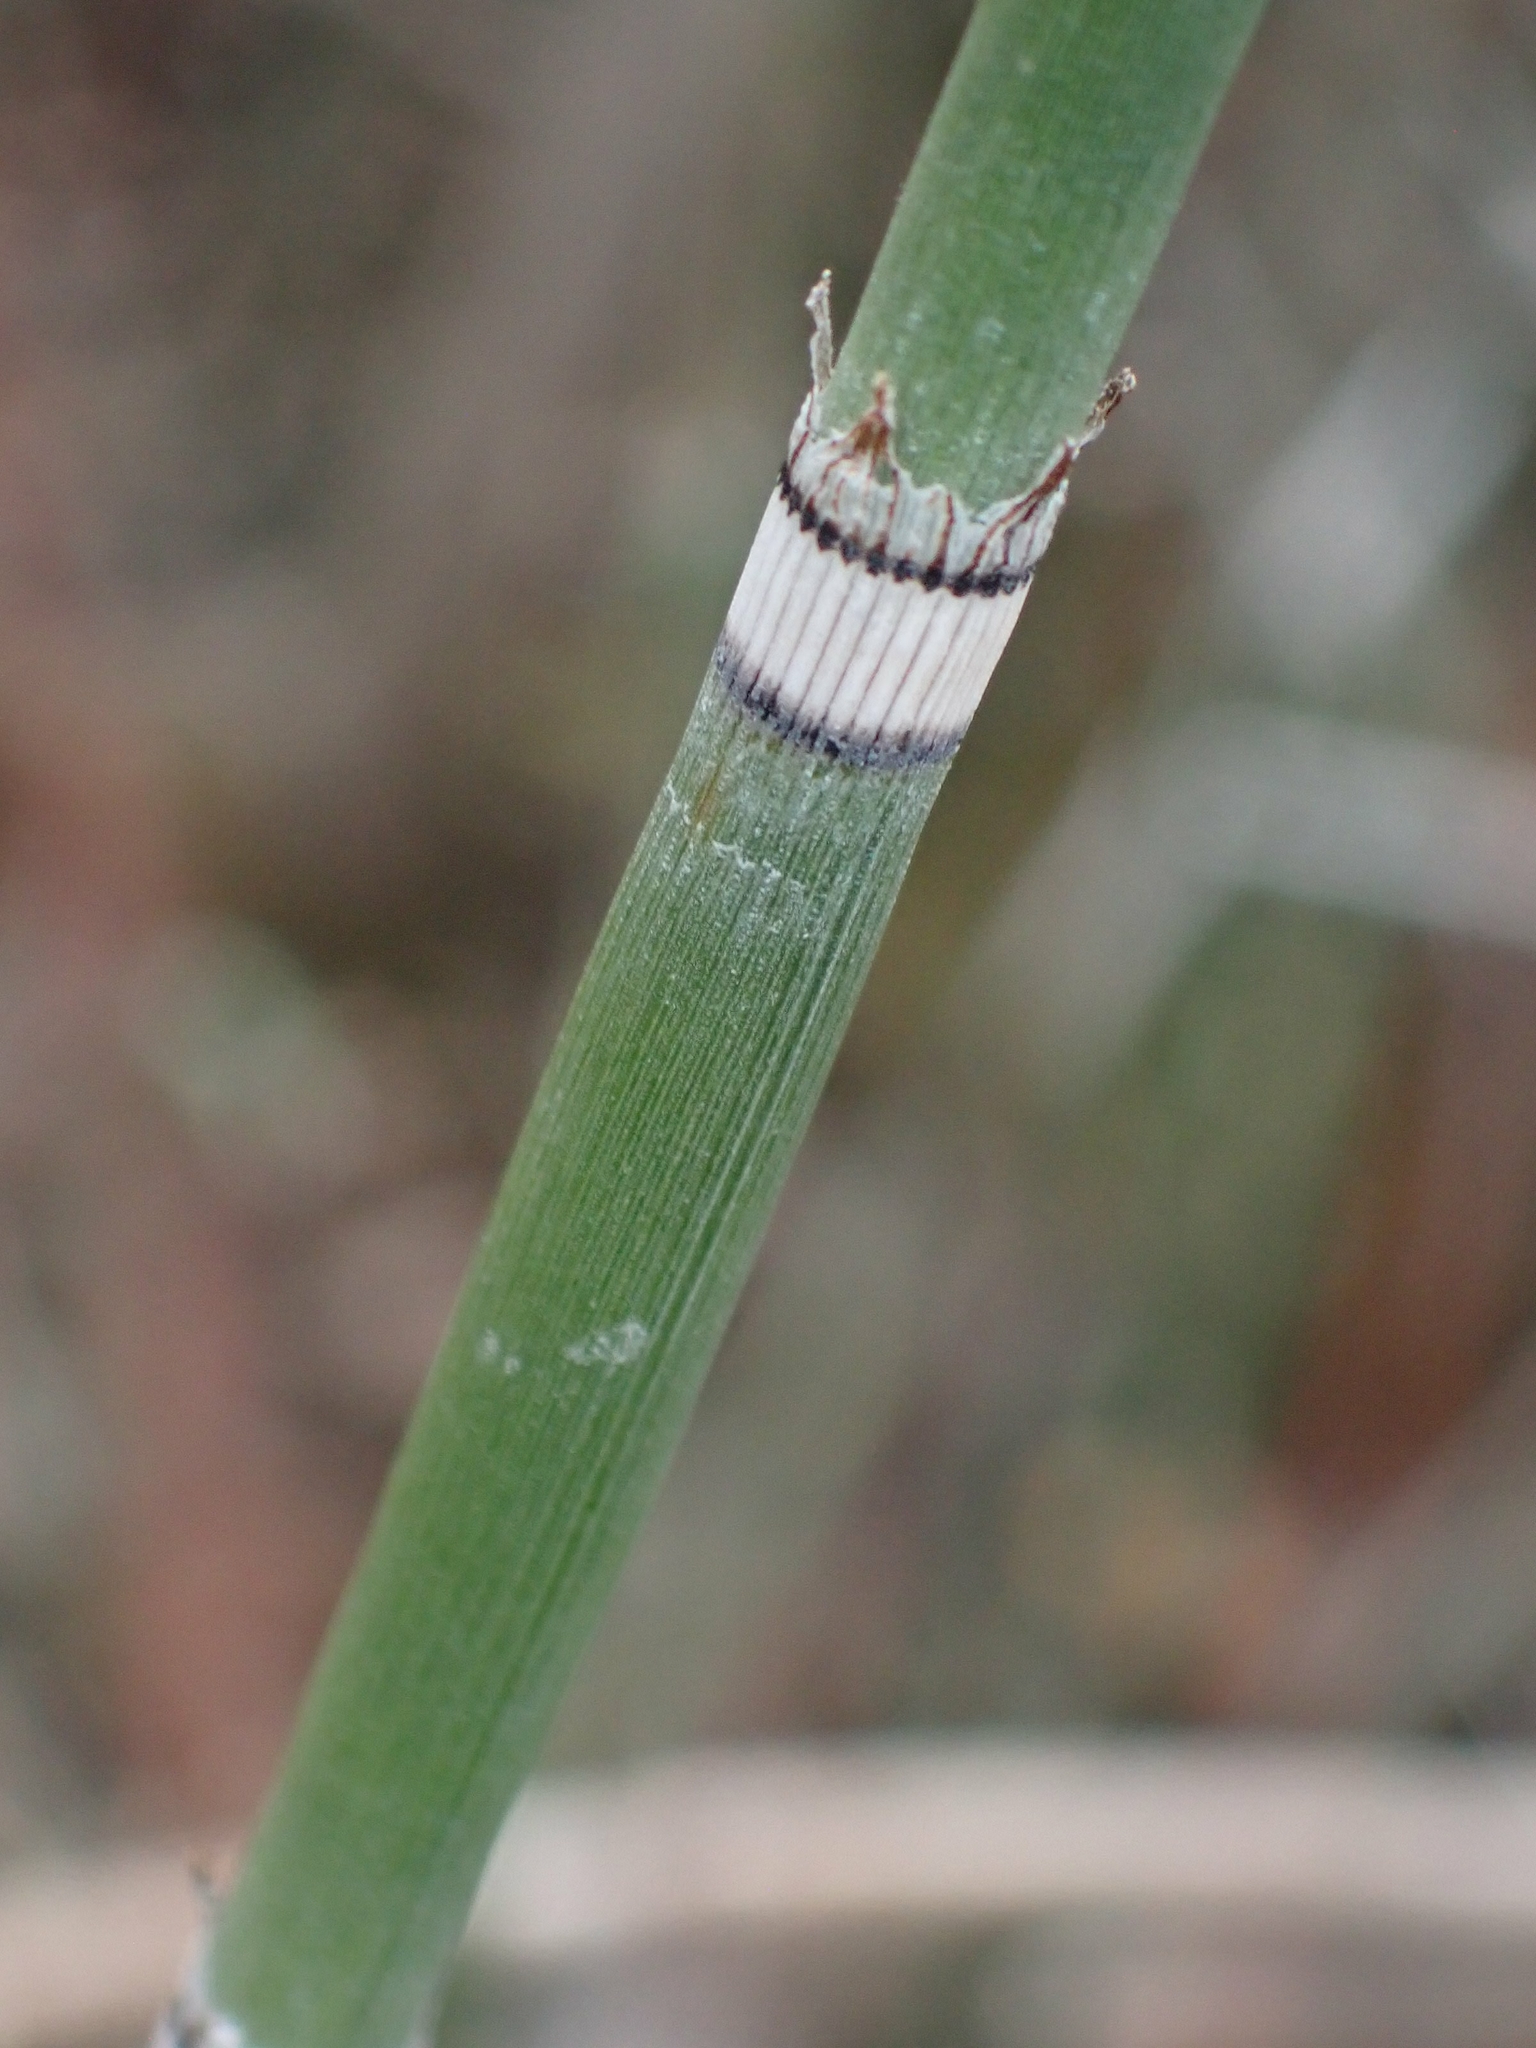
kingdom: Plantae
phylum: Tracheophyta
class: Polypodiopsida
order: Equisetales
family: Equisetaceae
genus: Equisetum
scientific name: Equisetum praealtum
